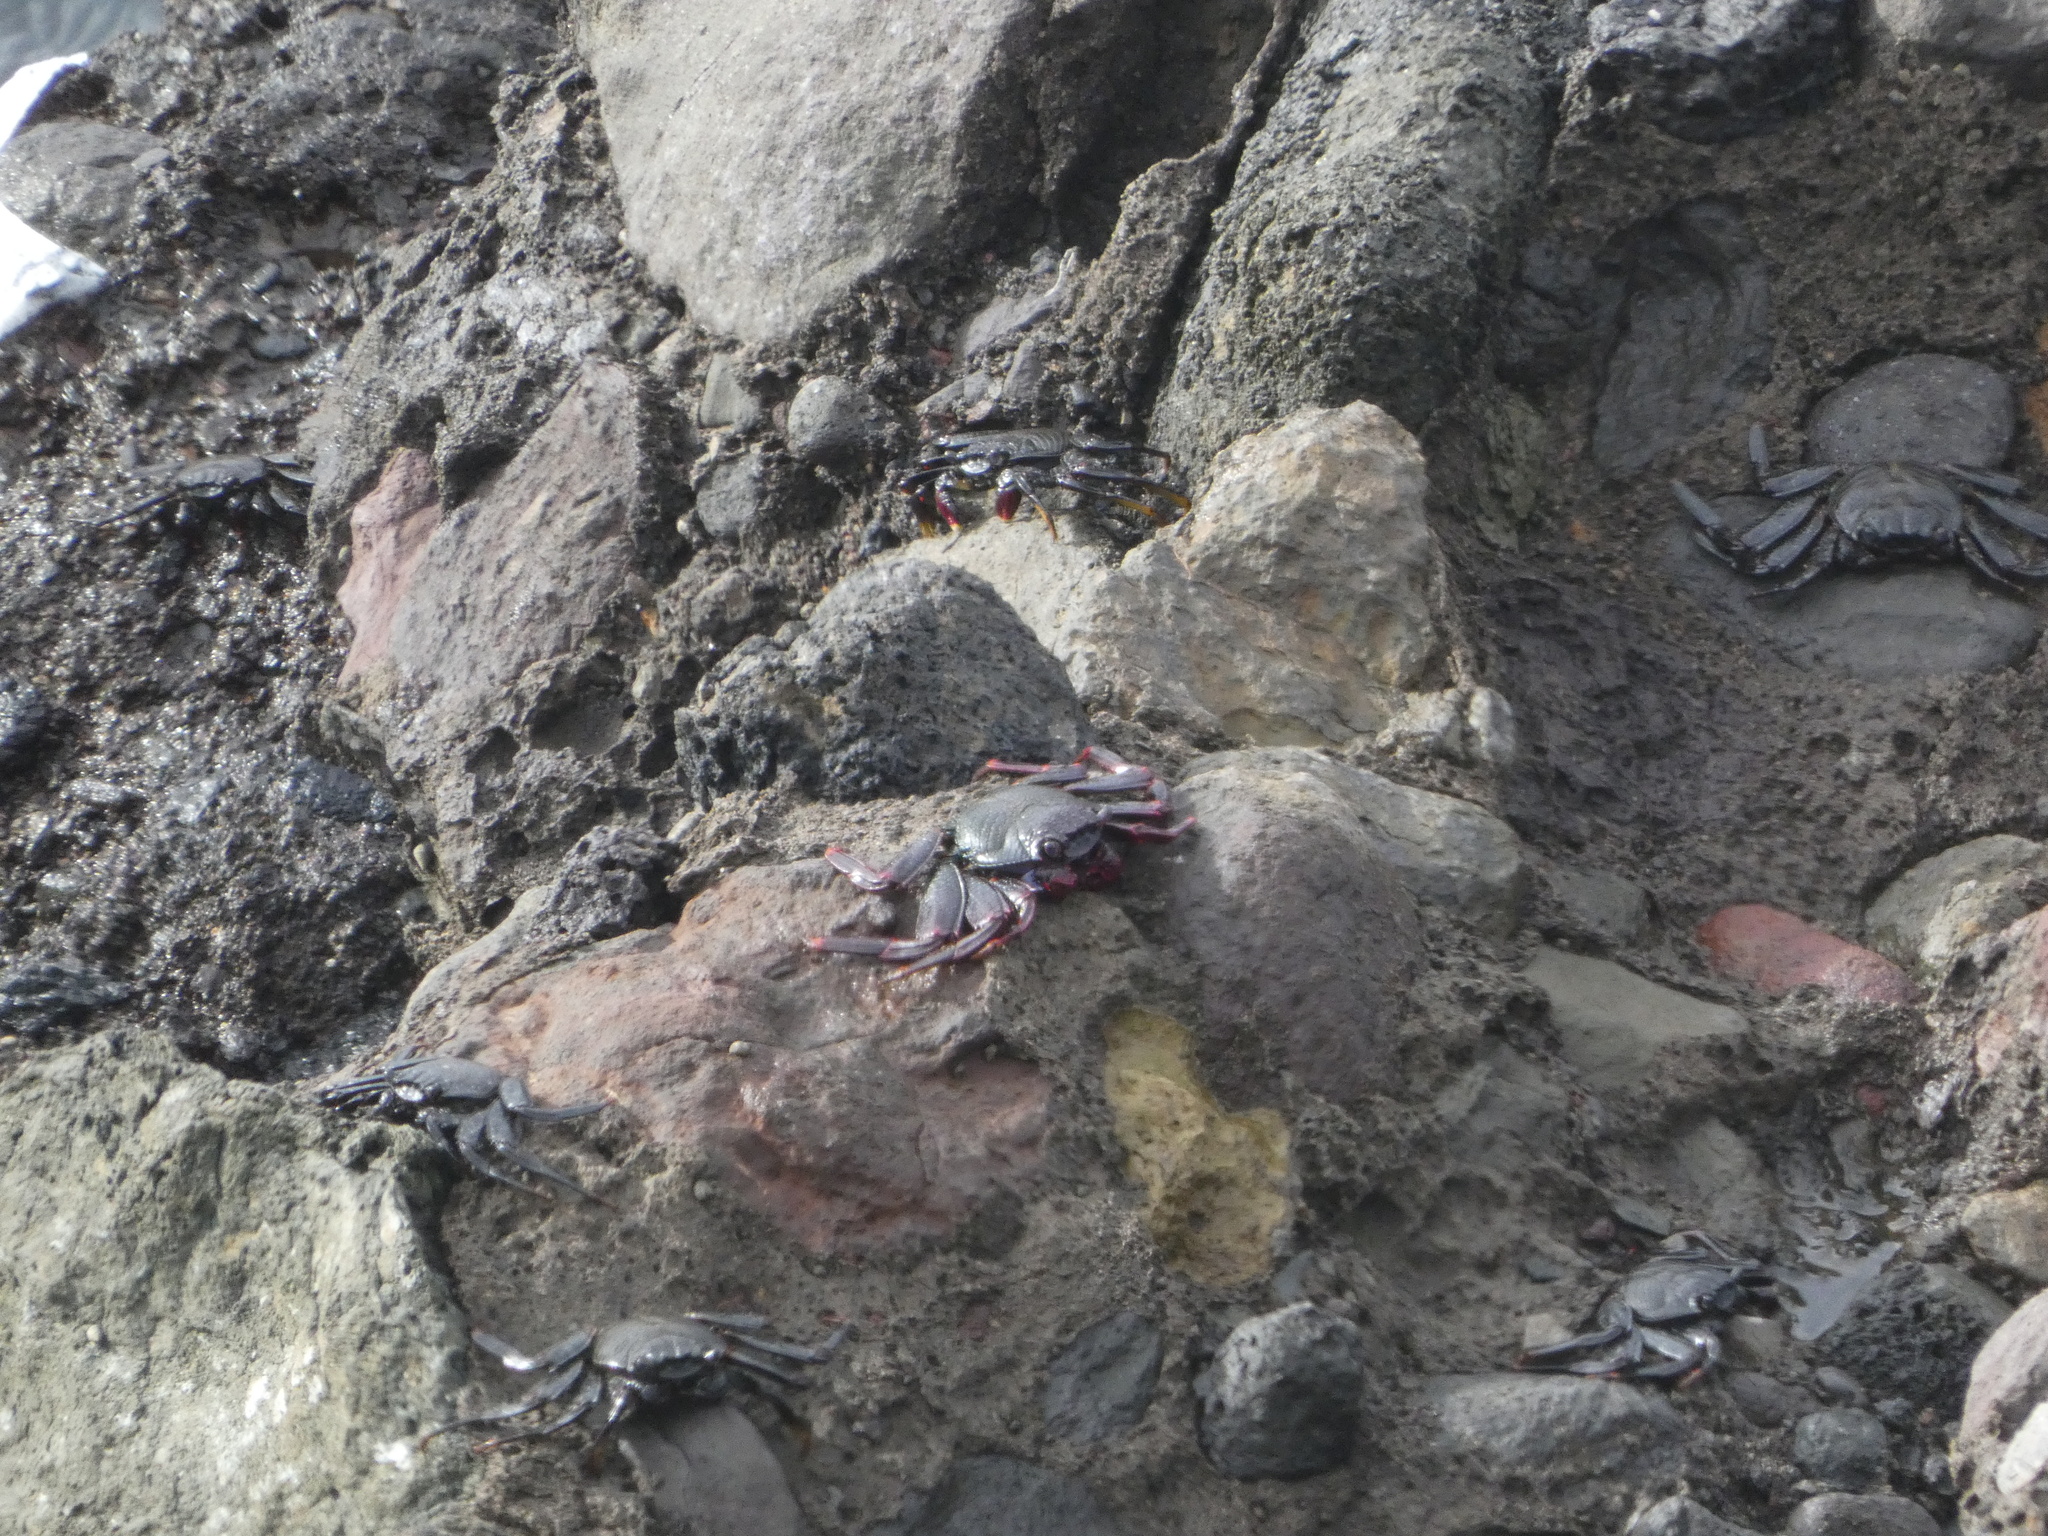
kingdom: Animalia
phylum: Arthropoda
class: Malacostraca
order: Decapoda
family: Grapsidae
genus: Grapsus
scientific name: Grapsus adscensionis
